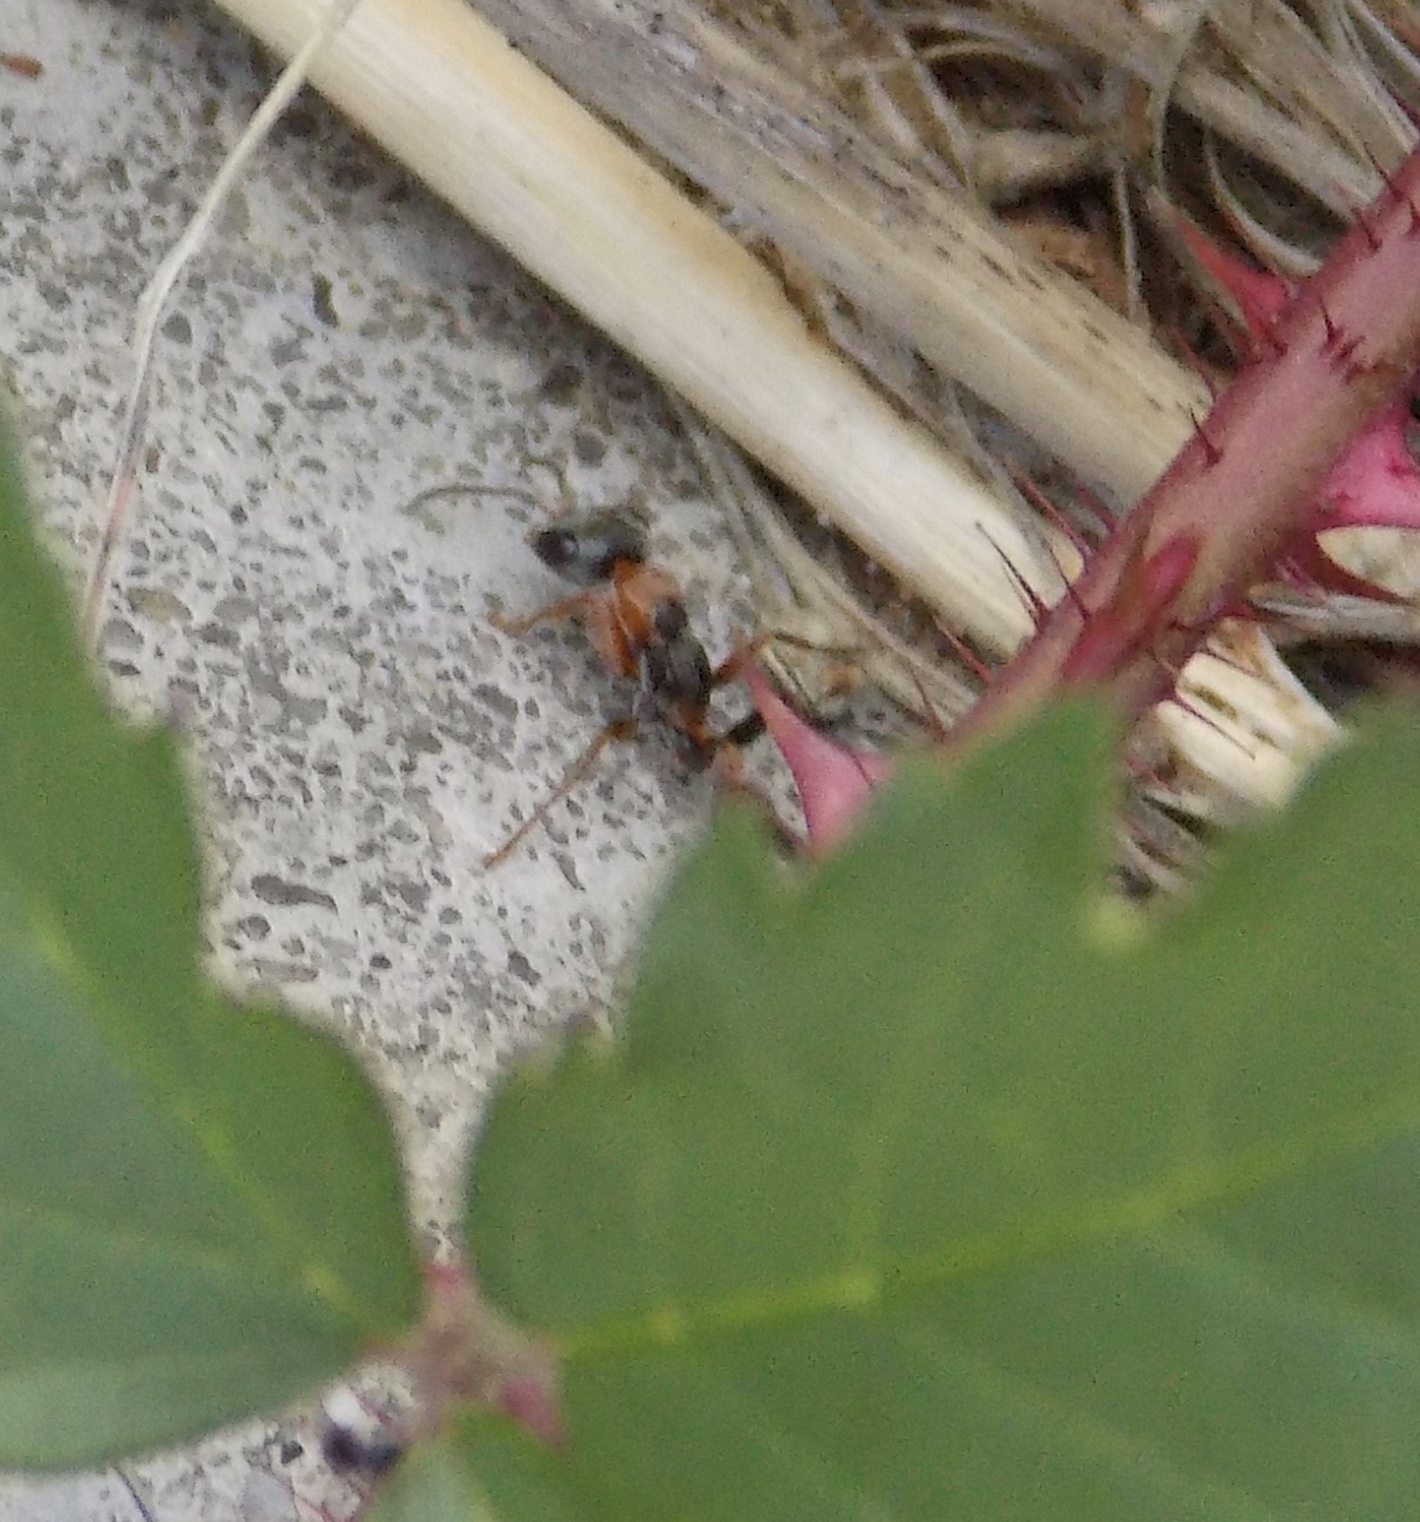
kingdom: Animalia
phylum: Arthropoda
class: Insecta
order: Hymenoptera
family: Formicidae
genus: Pseudomyrmex
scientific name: Pseudomyrmex gracilis
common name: Graceful twig ant
